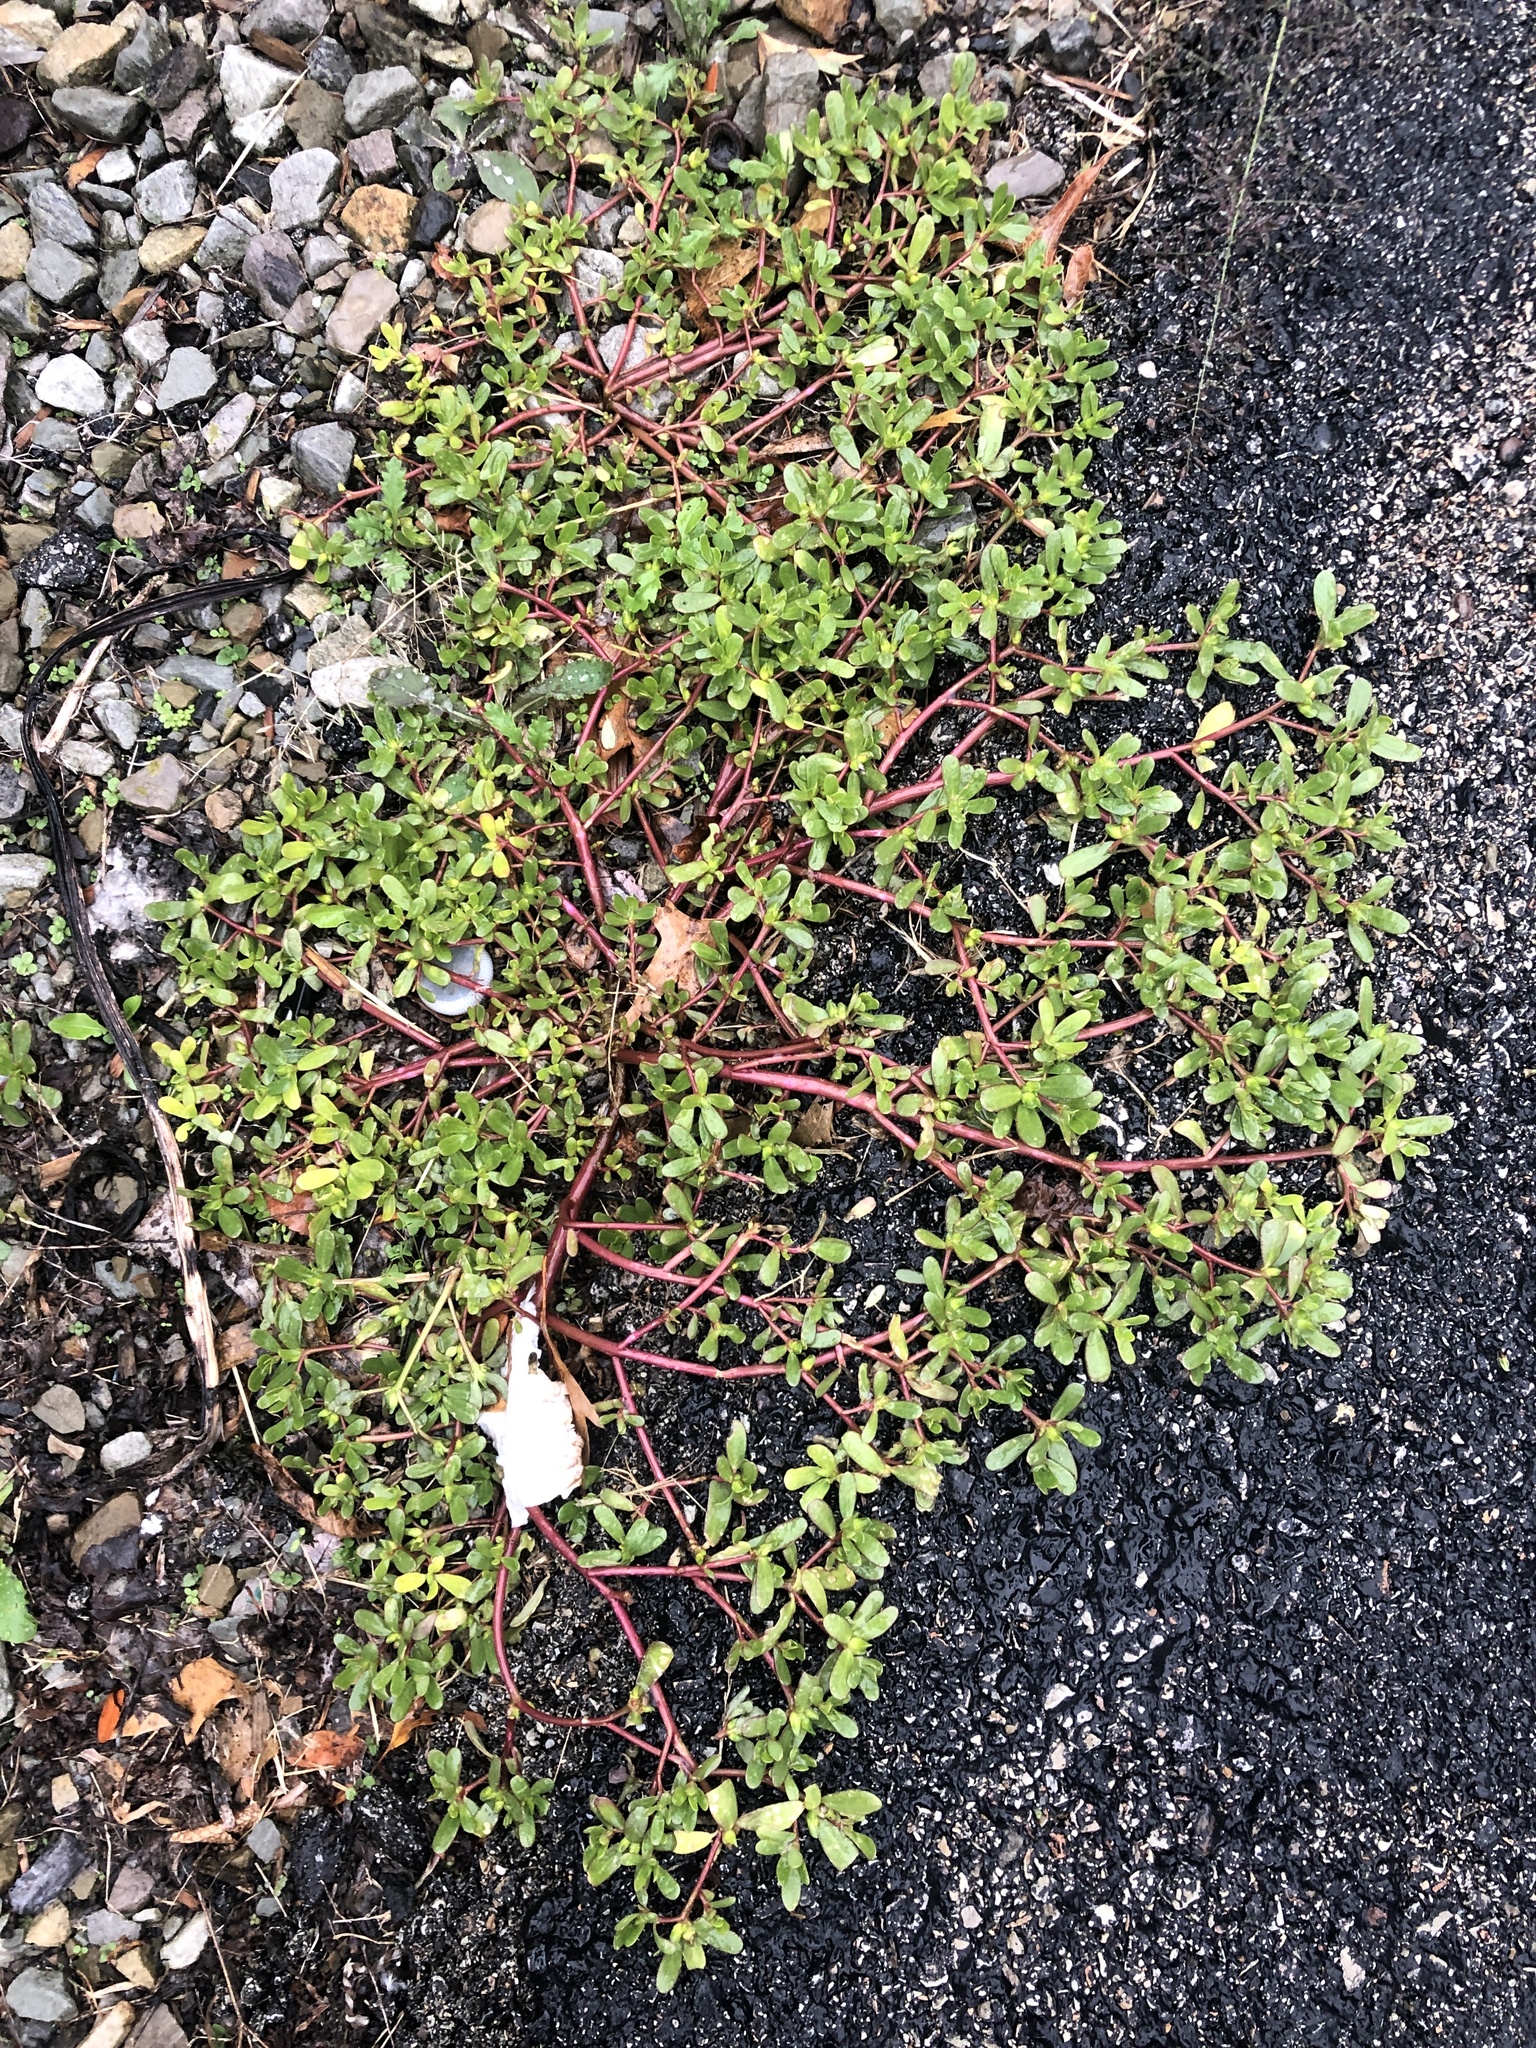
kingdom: Plantae
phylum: Tracheophyta
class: Magnoliopsida
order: Caryophyllales
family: Portulacaceae
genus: Portulaca
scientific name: Portulaca oleracea
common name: Common purslane
